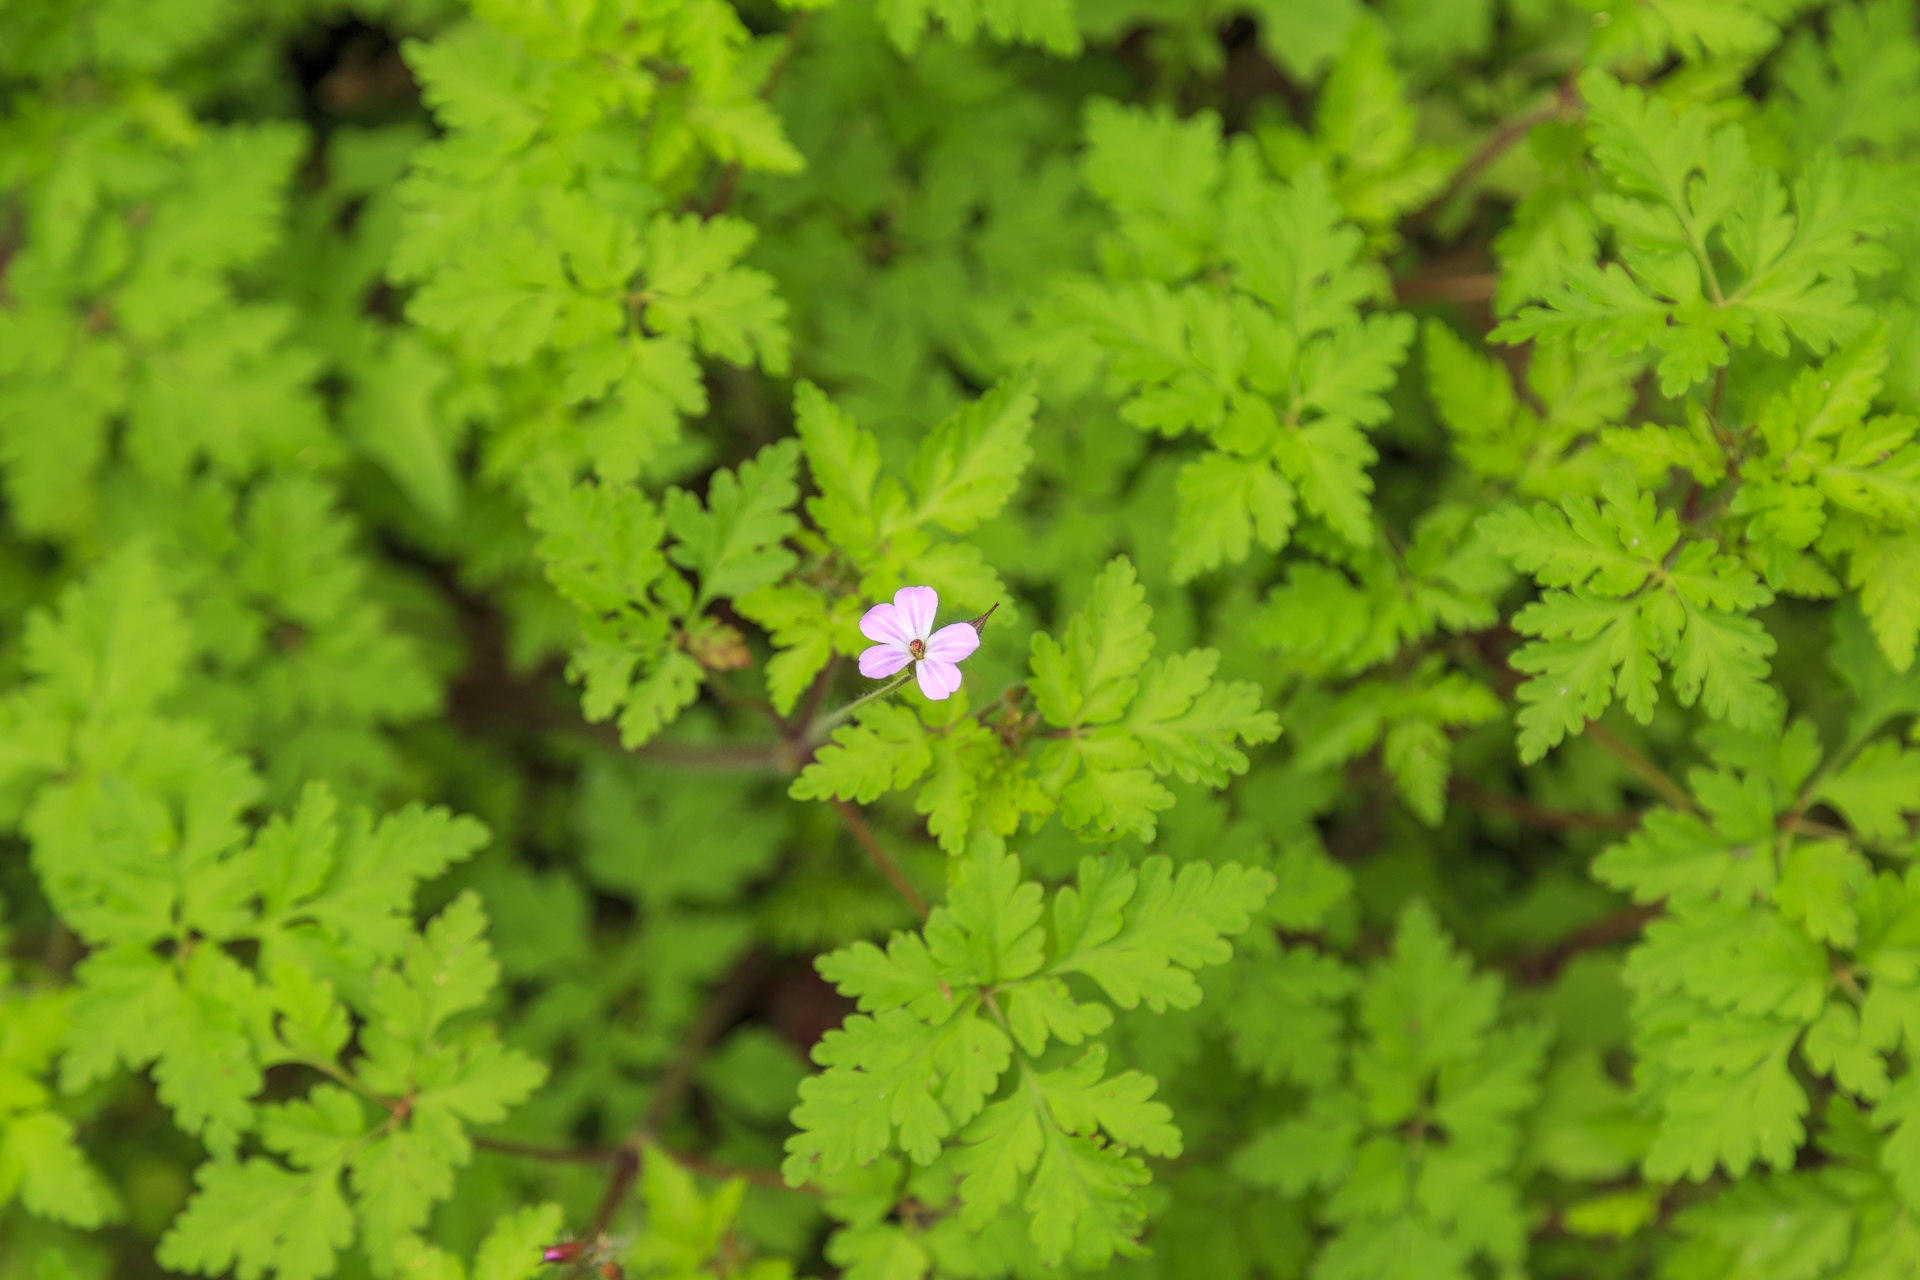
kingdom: Plantae
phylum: Tracheophyta
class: Magnoliopsida
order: Geraniales
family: Geraniaceae
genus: Geranium
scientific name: Geranium robertianum
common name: Herb-robert
